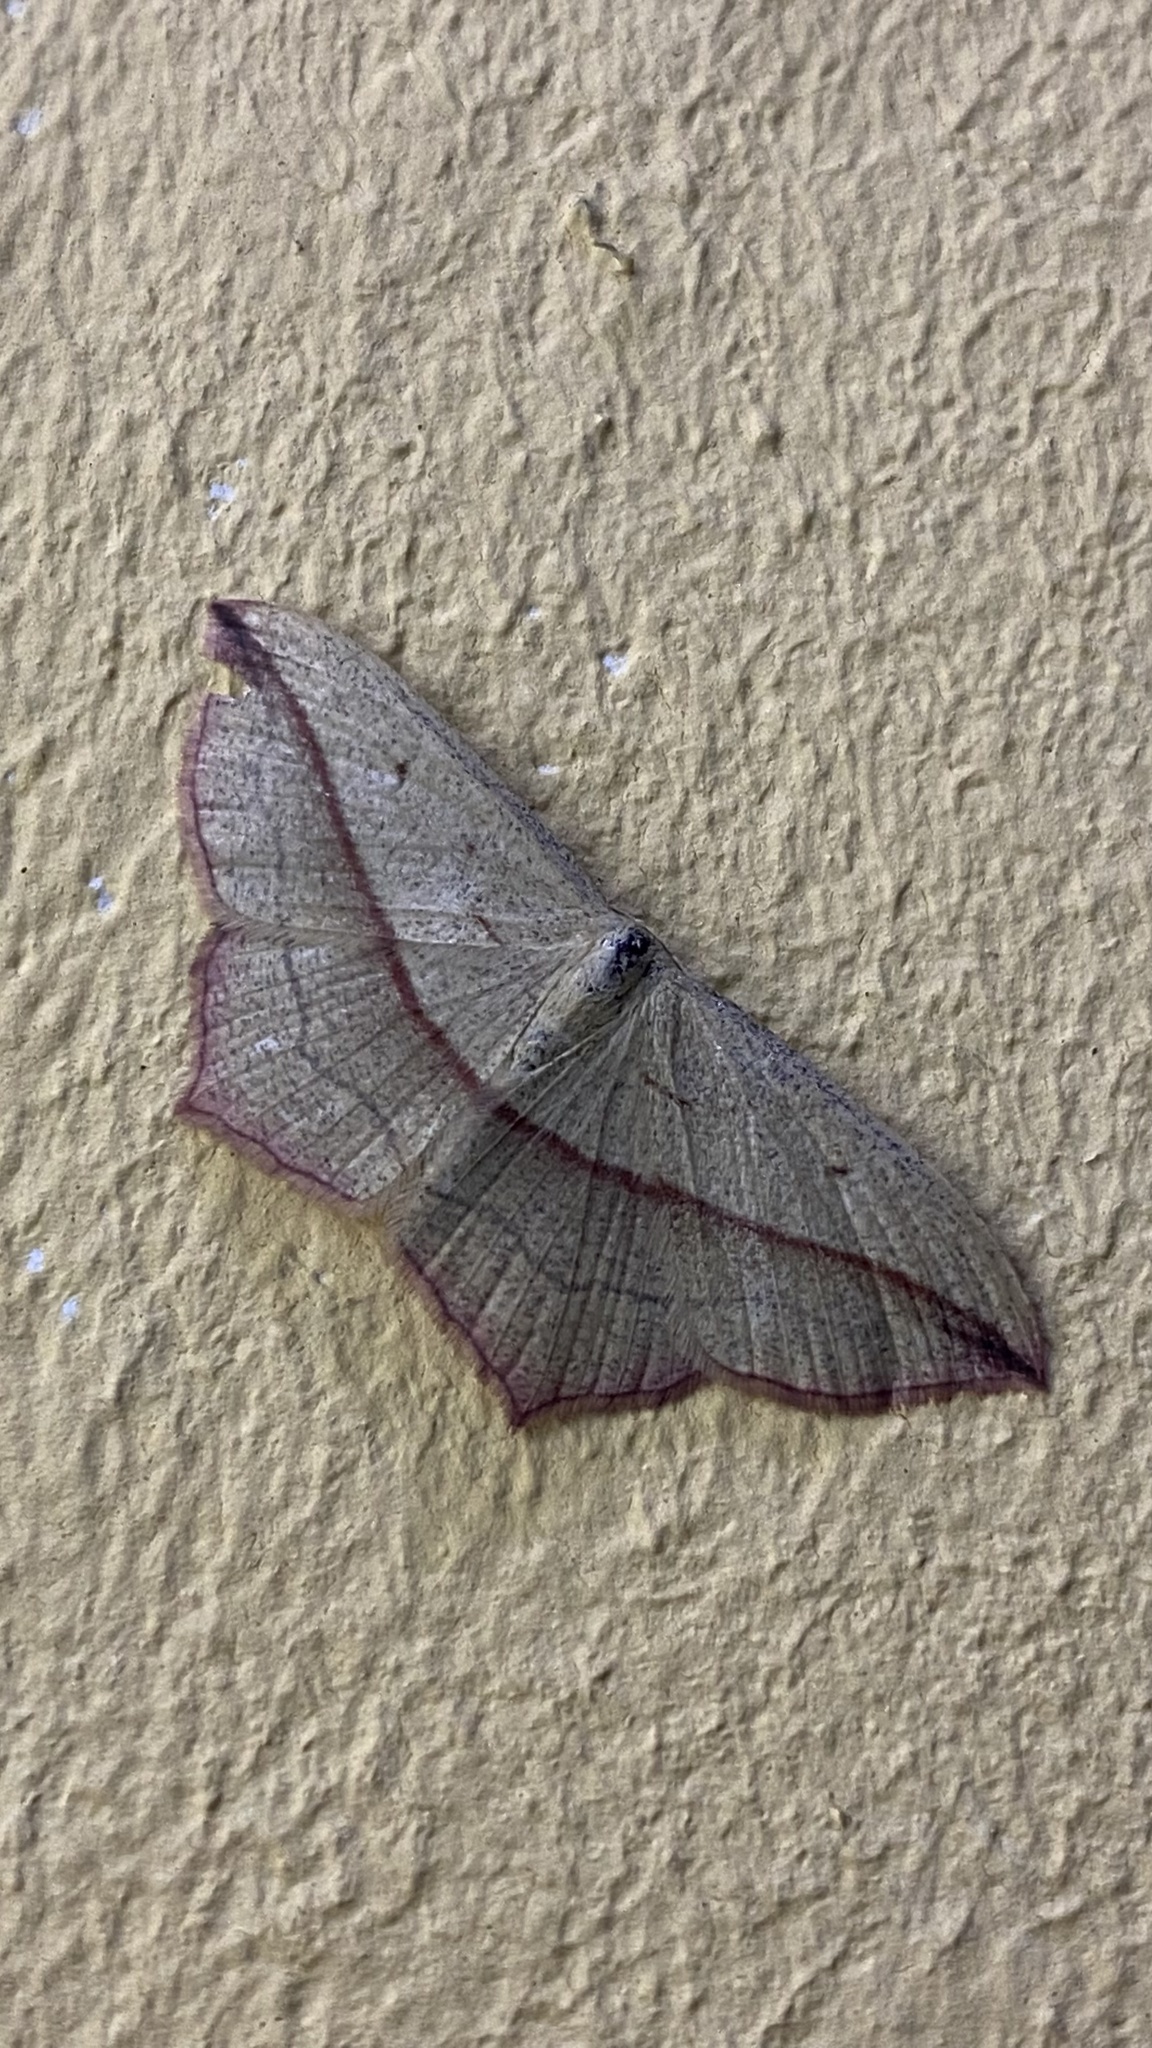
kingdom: Animalia
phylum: Arthropoda
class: Insecta
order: Lepidoptera
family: Geometridae
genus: Timandra
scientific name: Timandra comae
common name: Blood-vein
